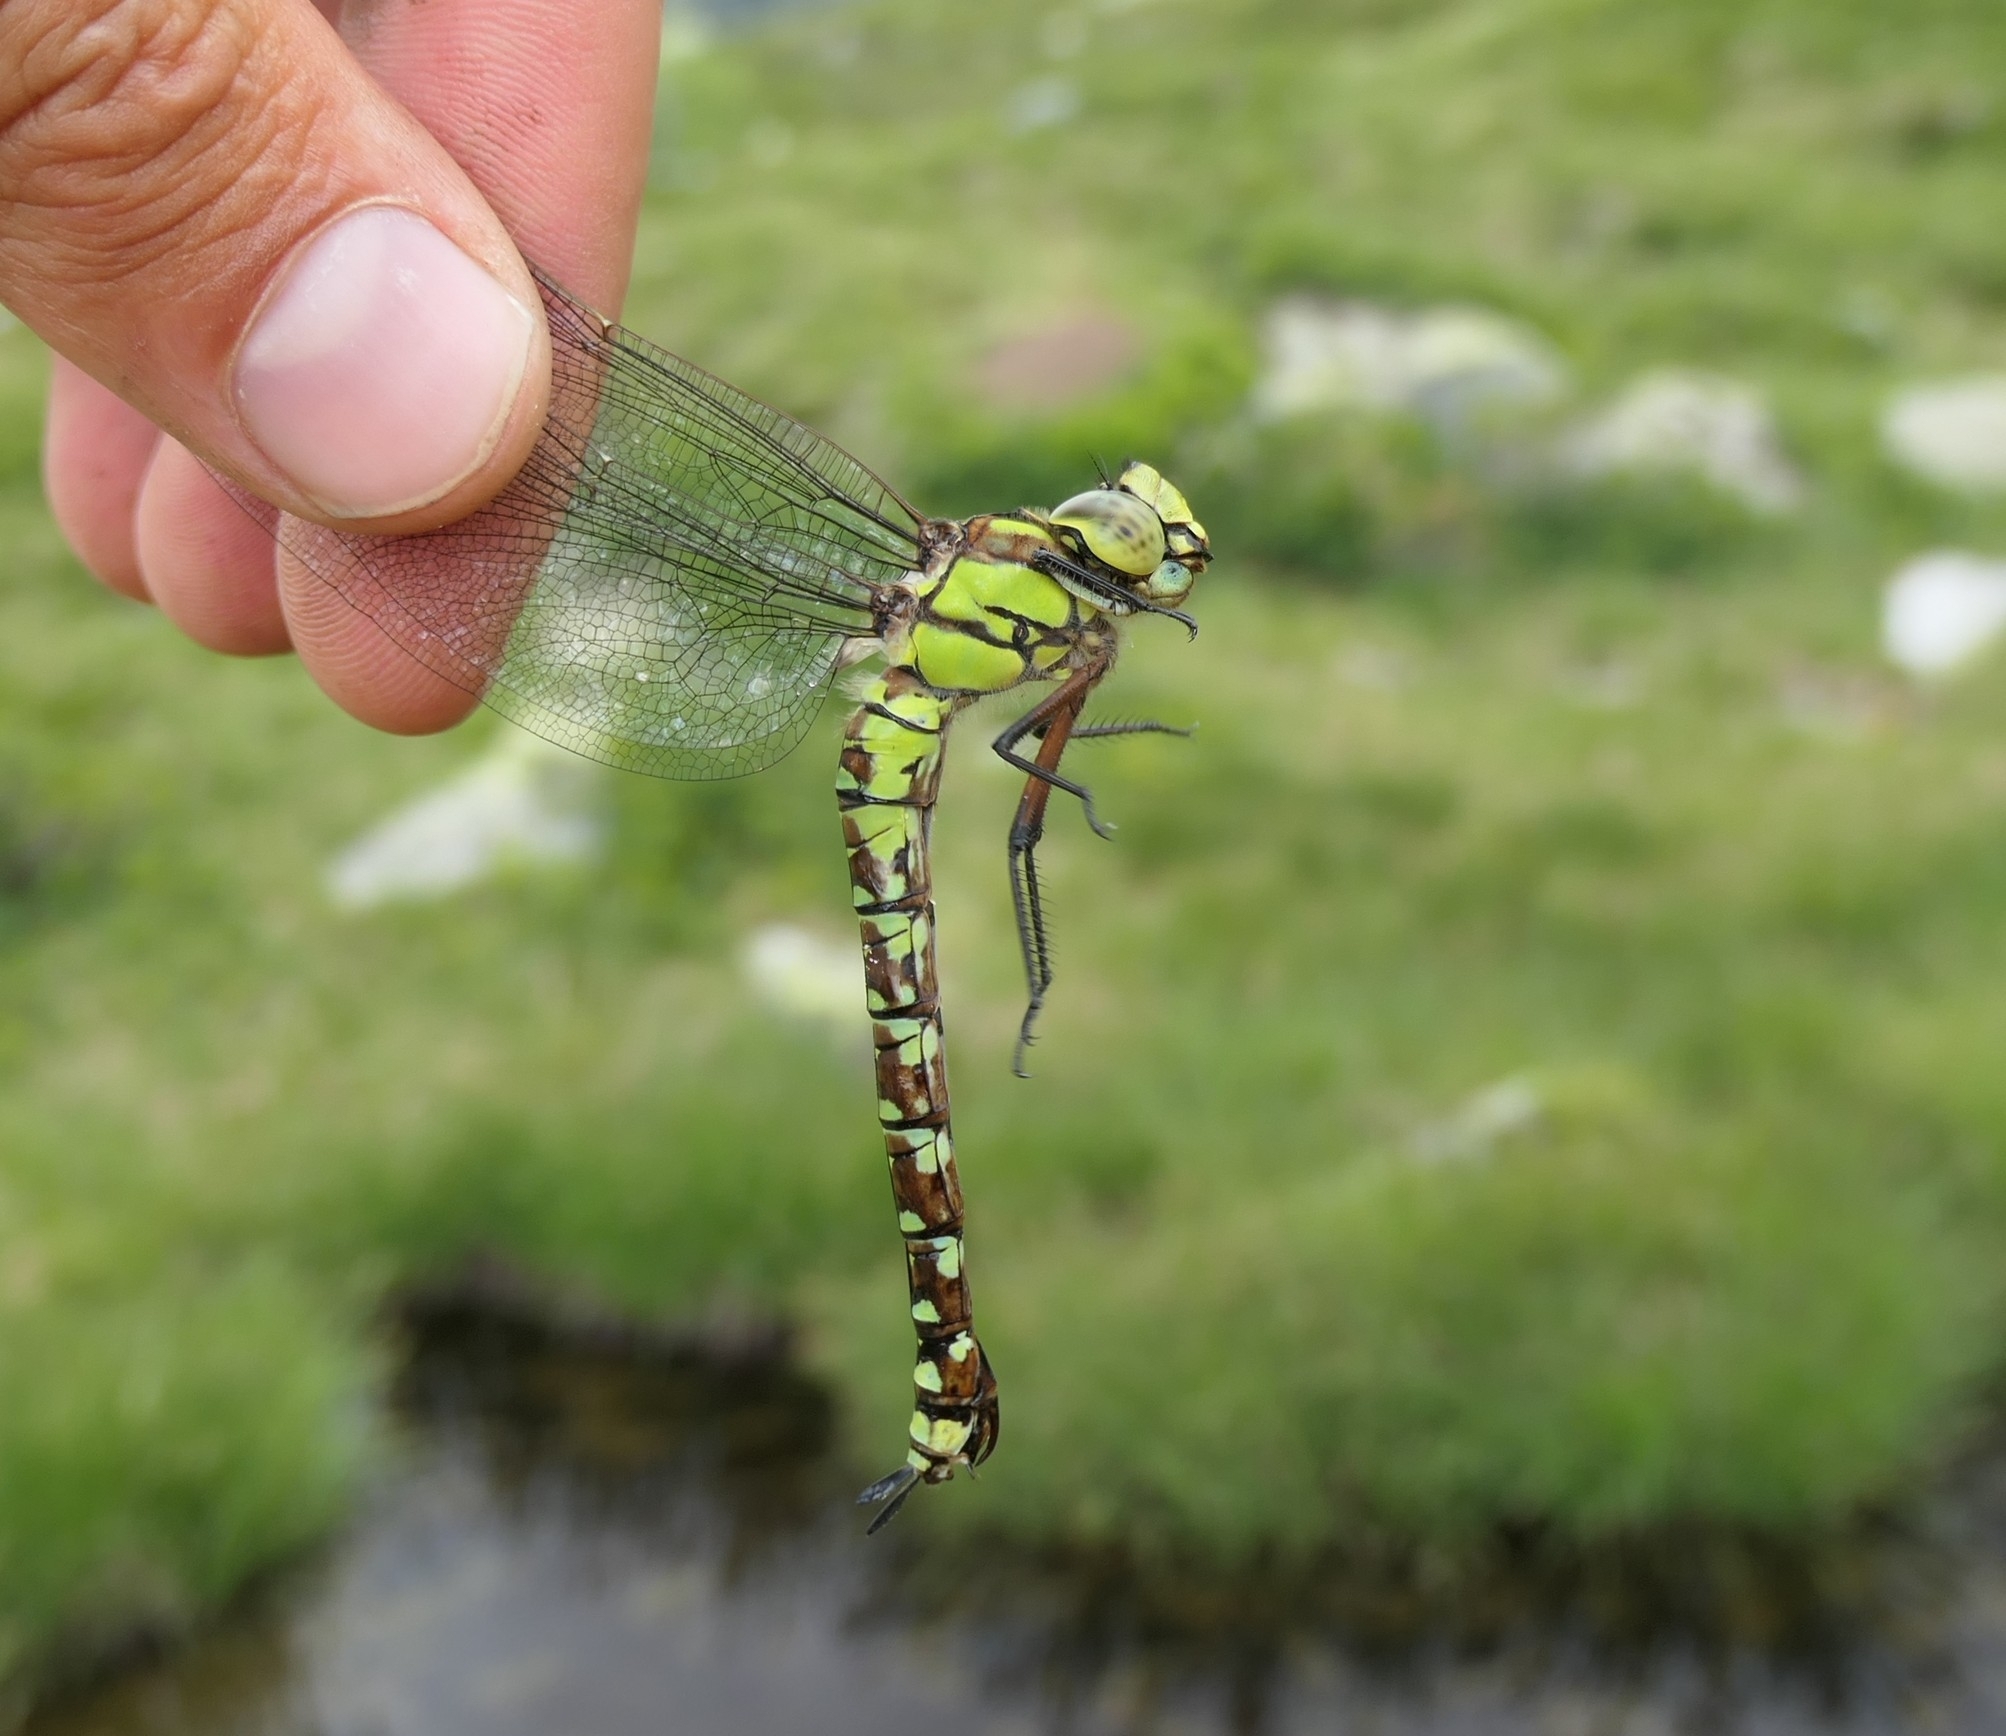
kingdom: Animalia
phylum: Arthropoda
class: Insecta
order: Odonata
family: Aeshnidae
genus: Aeshna
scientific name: Aeshna cyanea
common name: Southern hawker
